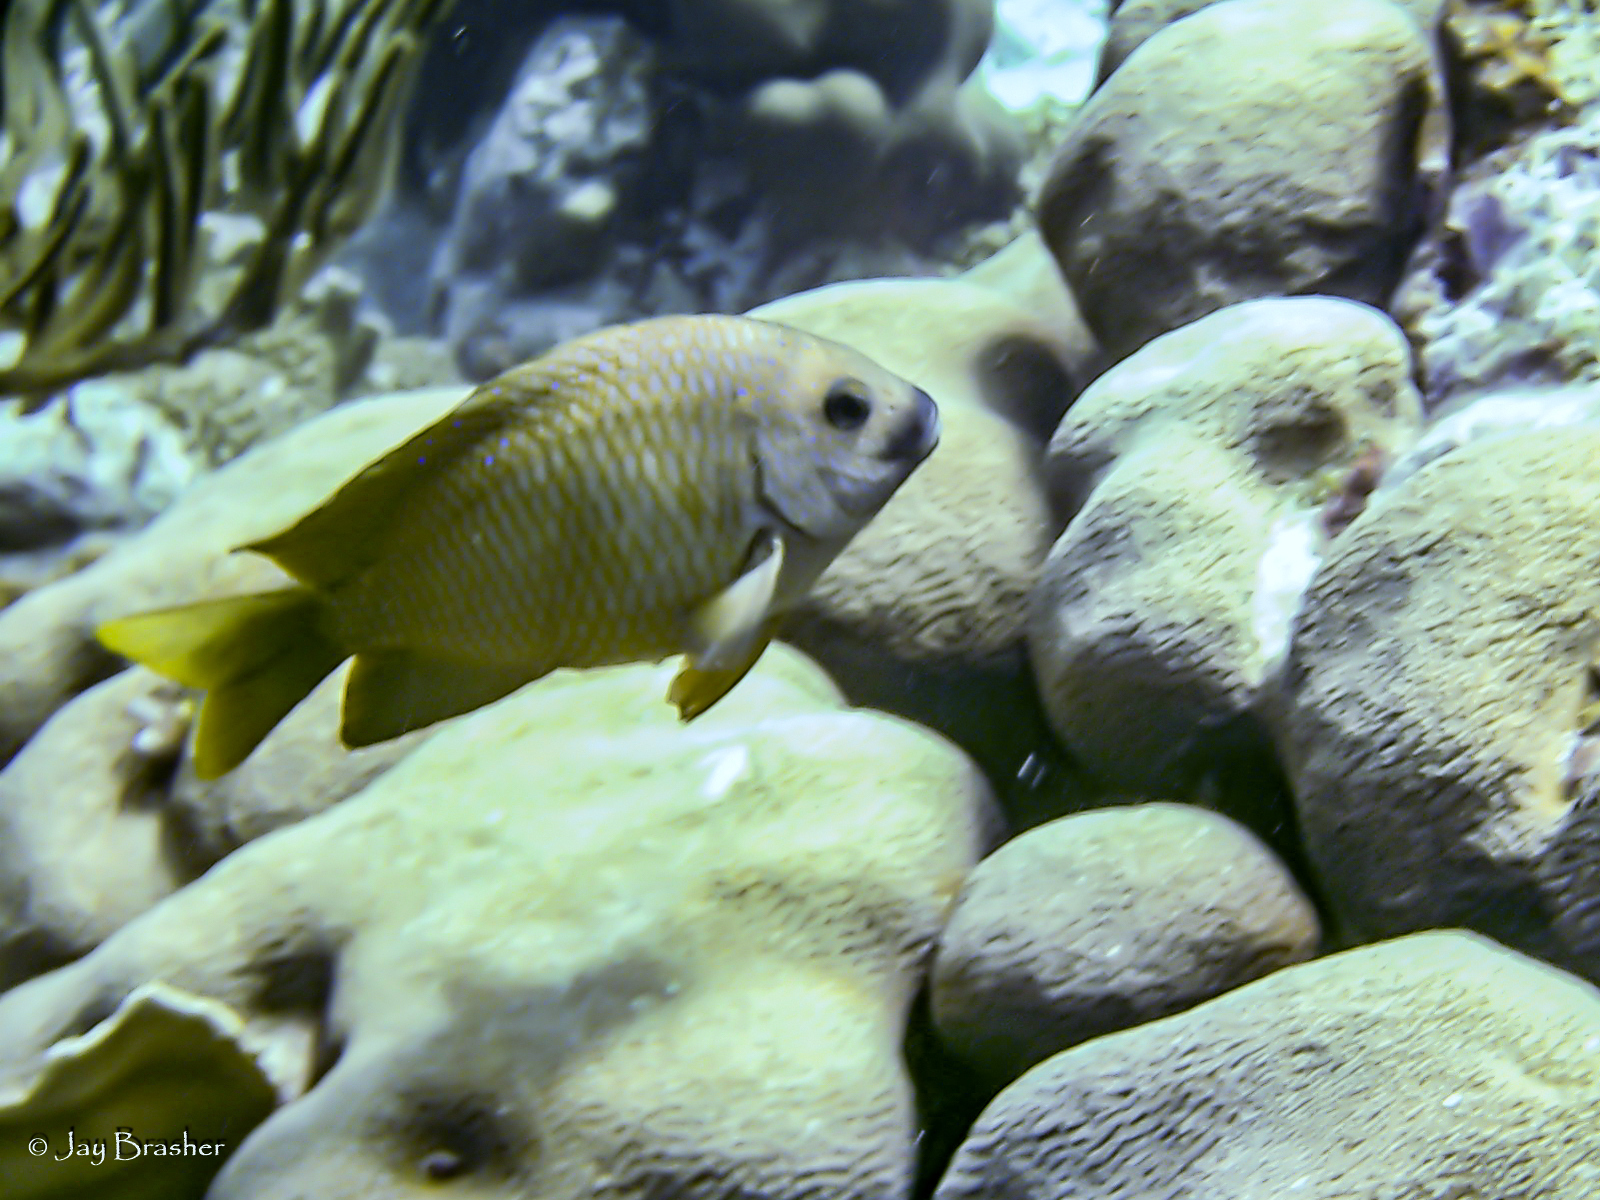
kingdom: Animalia
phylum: Chordata
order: Perciformes
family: Pomacentridae
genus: Microspathodon
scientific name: Microspathodon chrysurus
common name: Yellowtail damselfish
